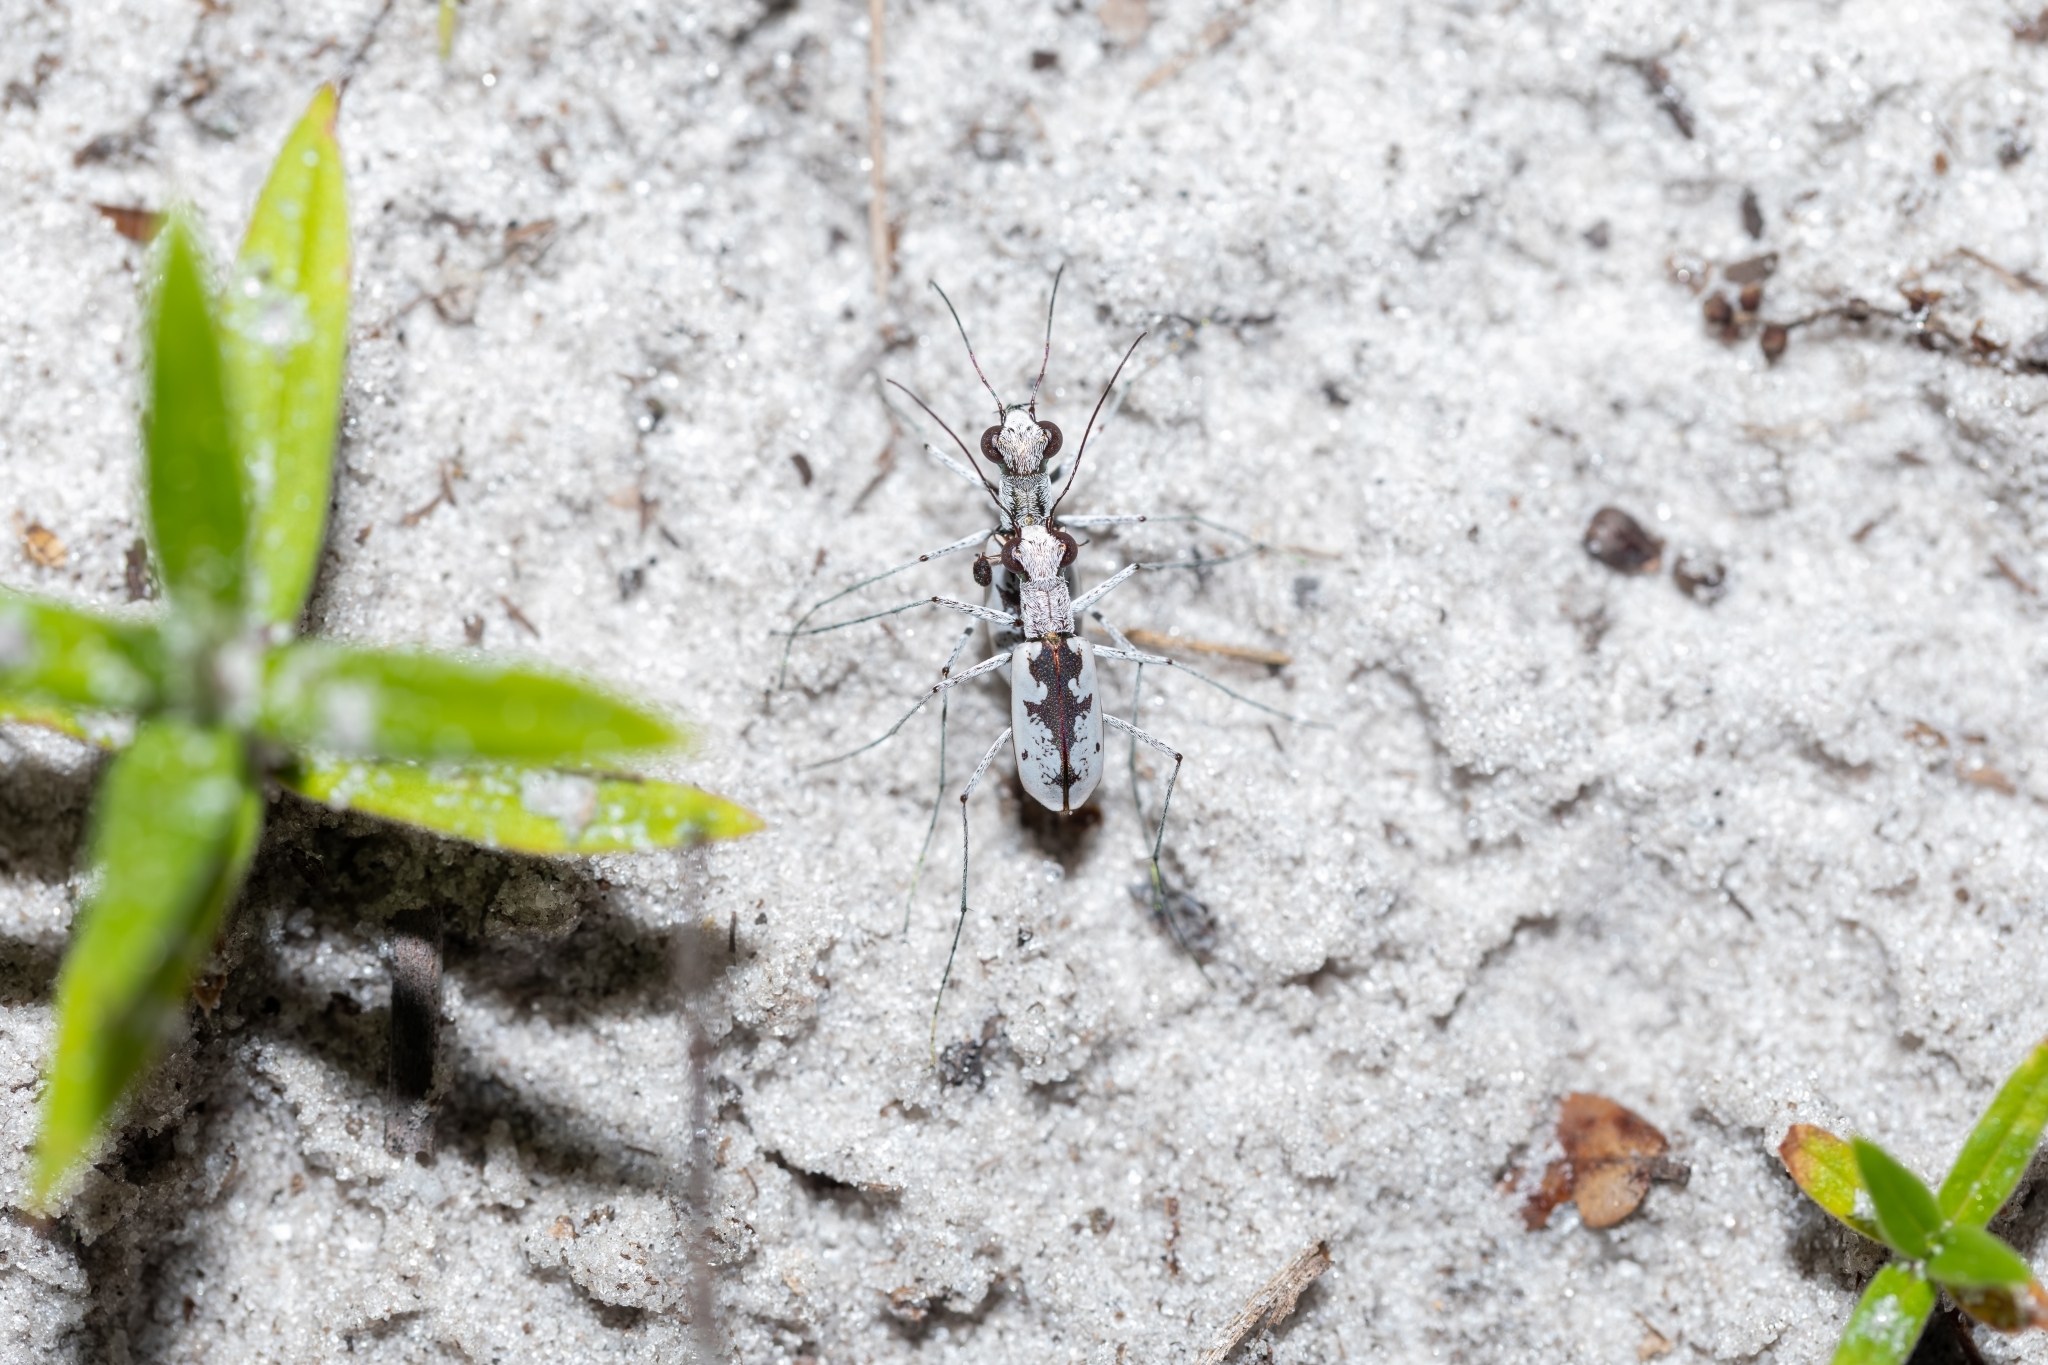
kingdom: Animalia
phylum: Arthropoda
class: Insecta
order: Coleoptera
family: Carabidae
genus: Ellipsoptera
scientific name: Ellipsoptera hirtilabris
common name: Moustached tiger beetle
